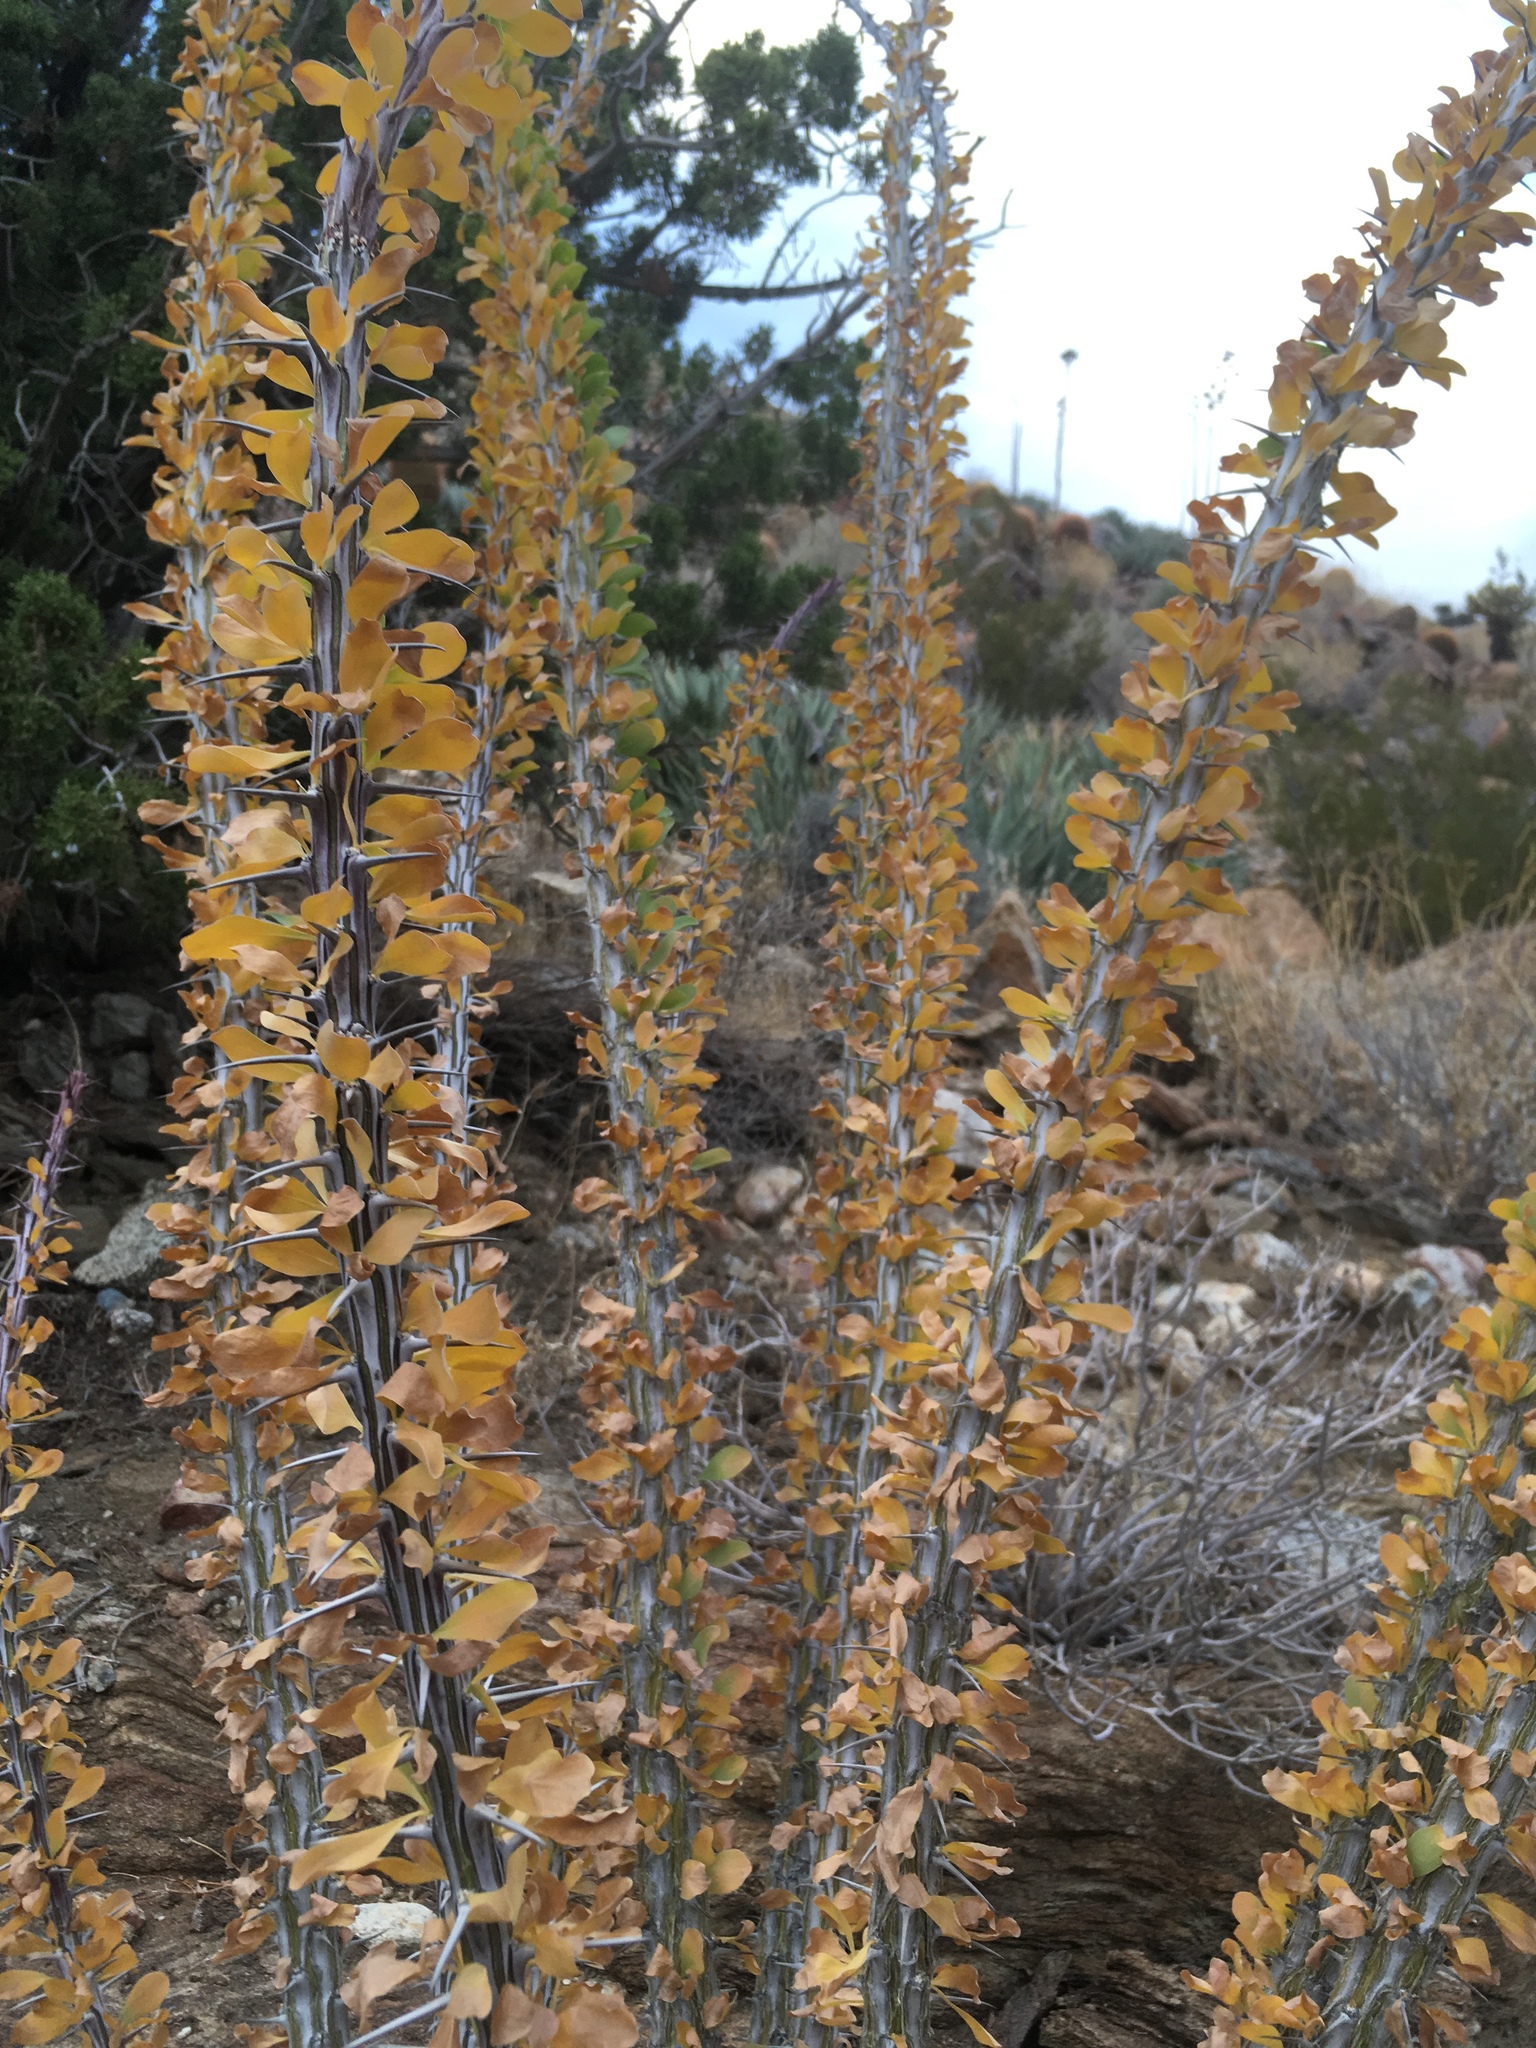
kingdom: Plantae
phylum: Tracheophyta
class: Magnoliopsida
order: Ericales
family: Fouquieriaceae
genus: Fouquieria
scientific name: Fouquieria splendens
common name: Vine-cactus
